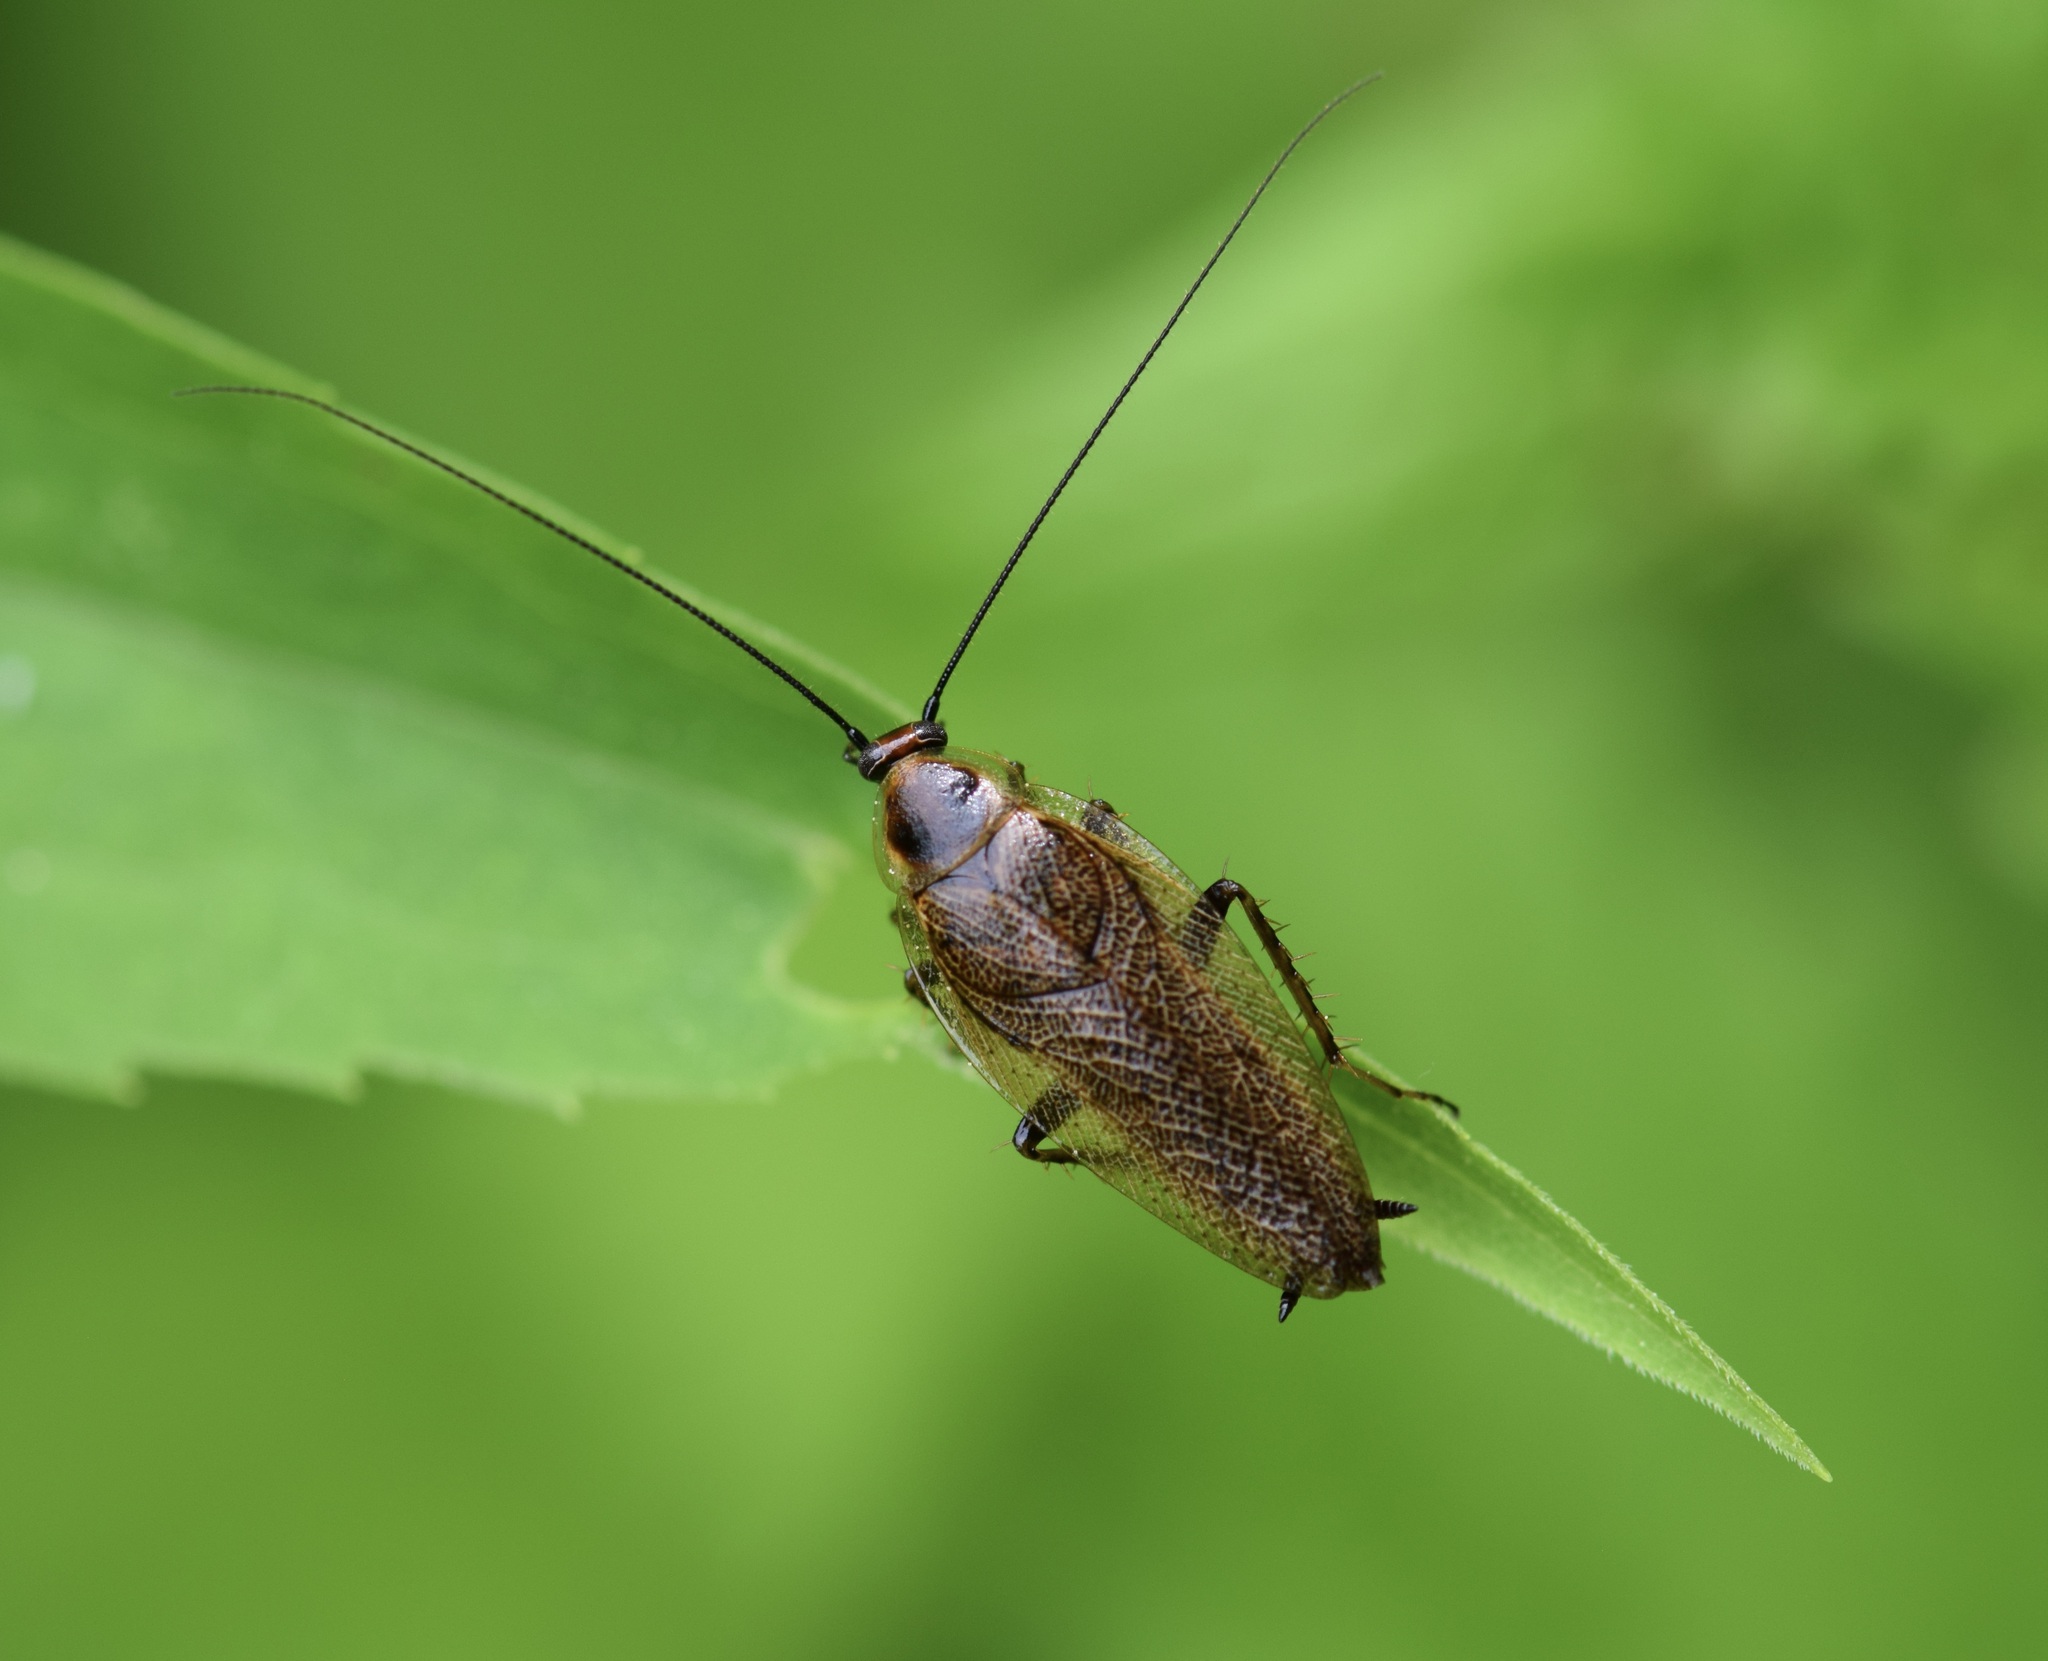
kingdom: Animalia
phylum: Arthropoda
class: Insecta
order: Blattodea
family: Ectobiidae
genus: Ectobius
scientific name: Ectobius lapponicus
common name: Dusky cockroach
